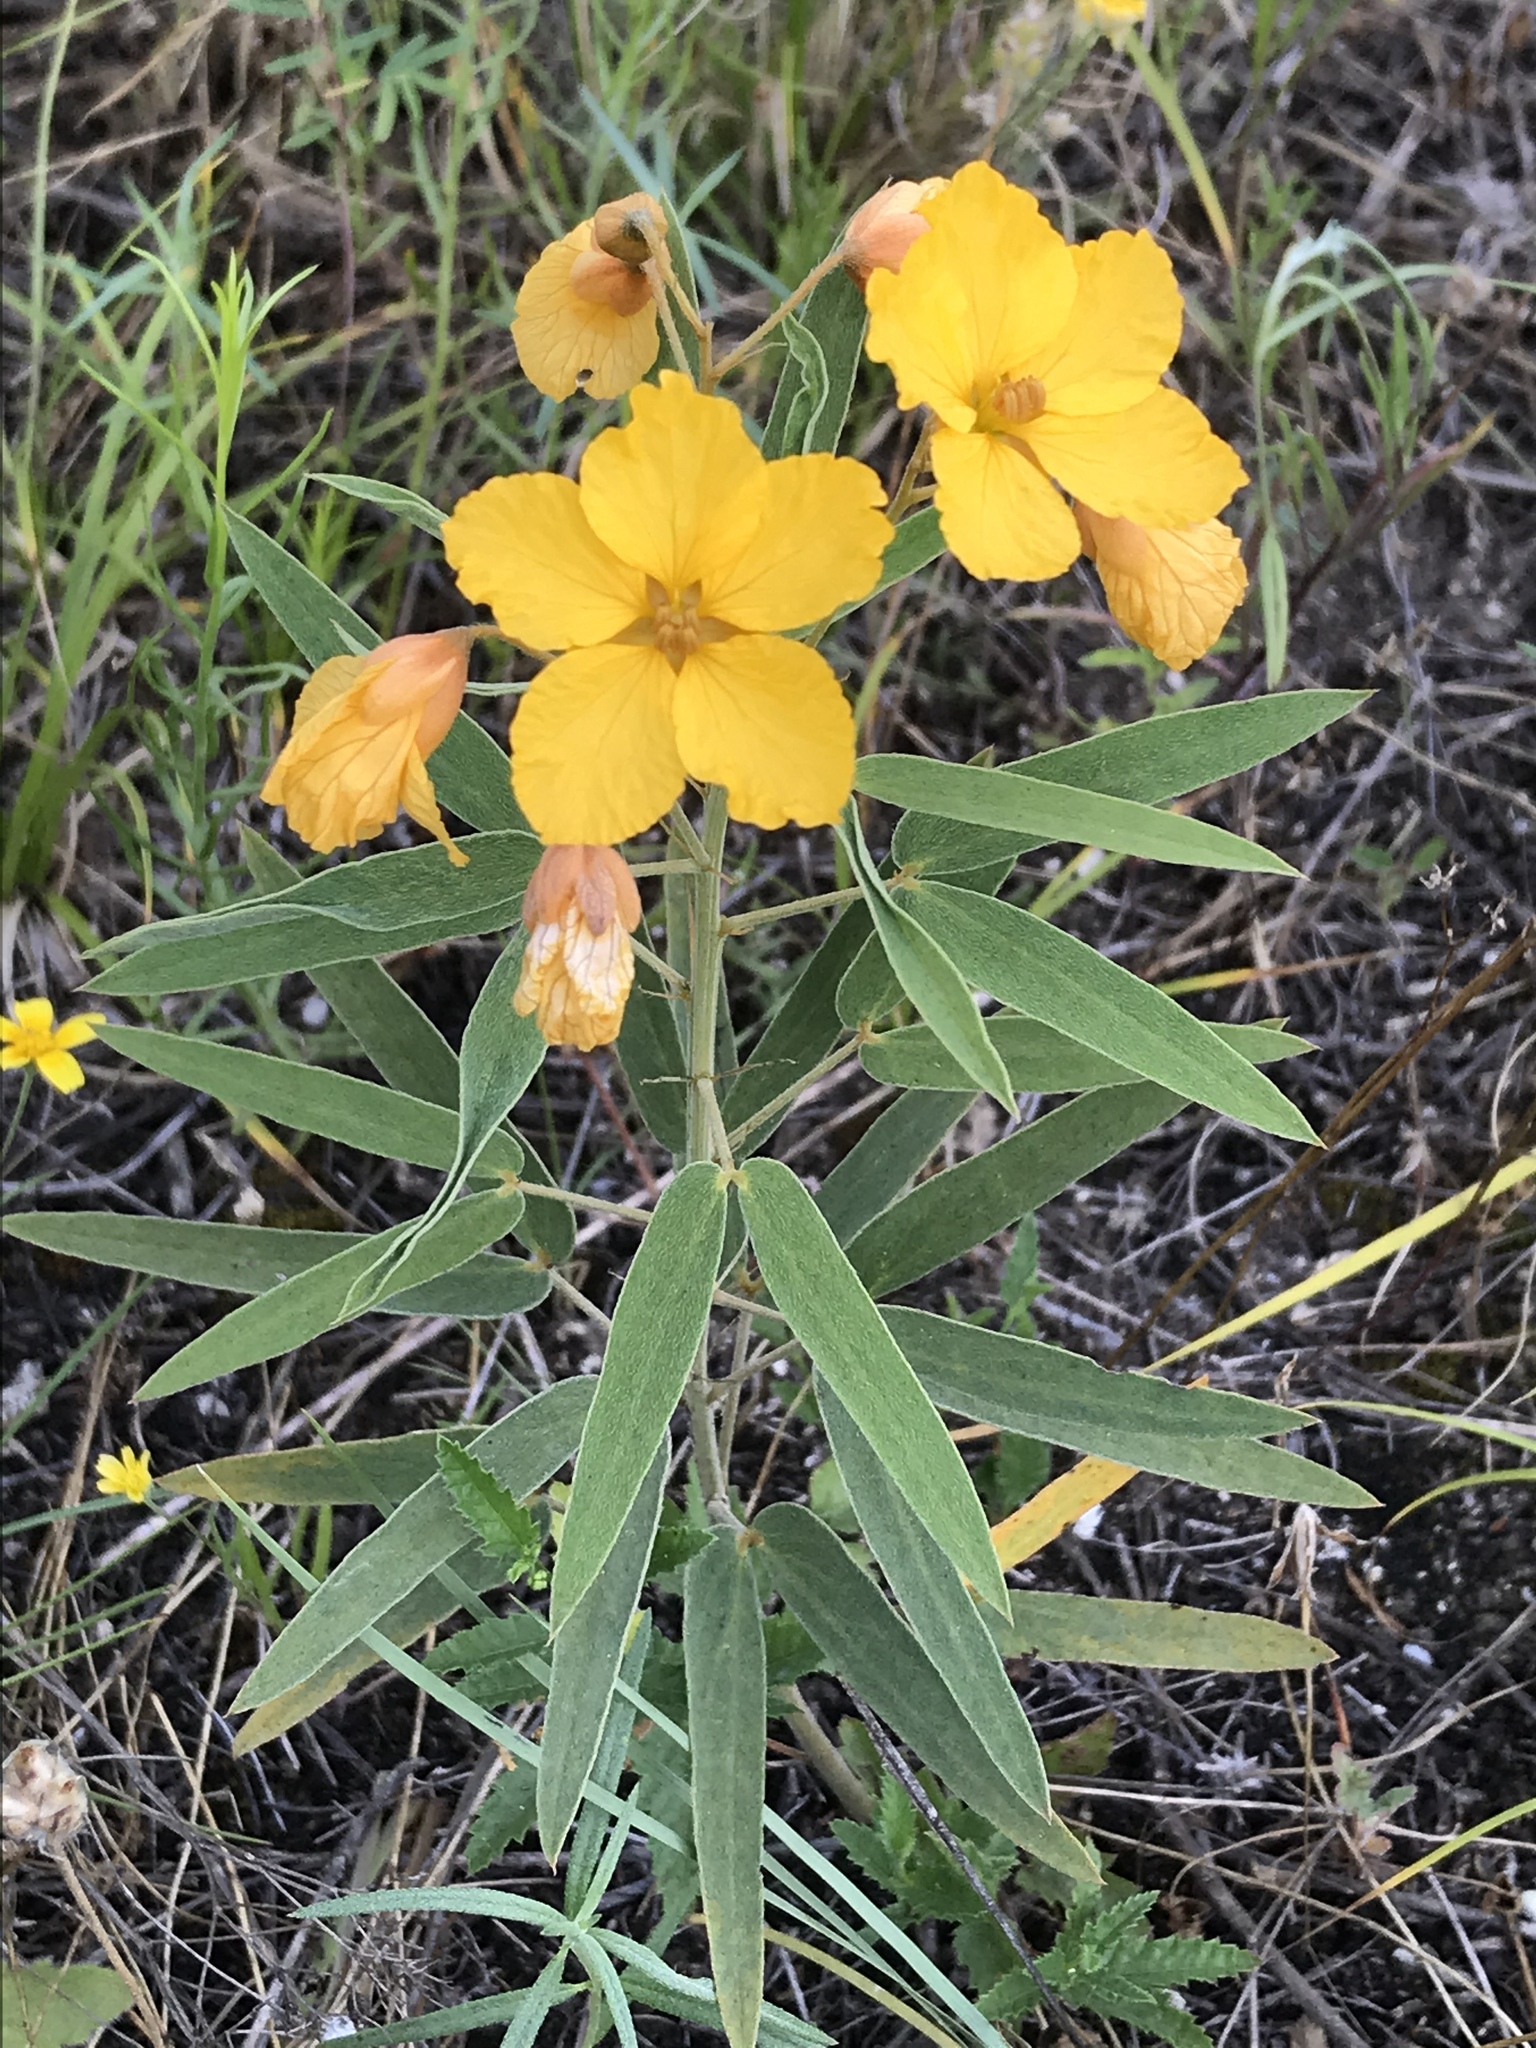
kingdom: Plantae
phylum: Tracheophyta
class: Magnoliopsida
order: Fabales
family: Fabaceae
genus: Senna
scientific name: Senna roemeriana
